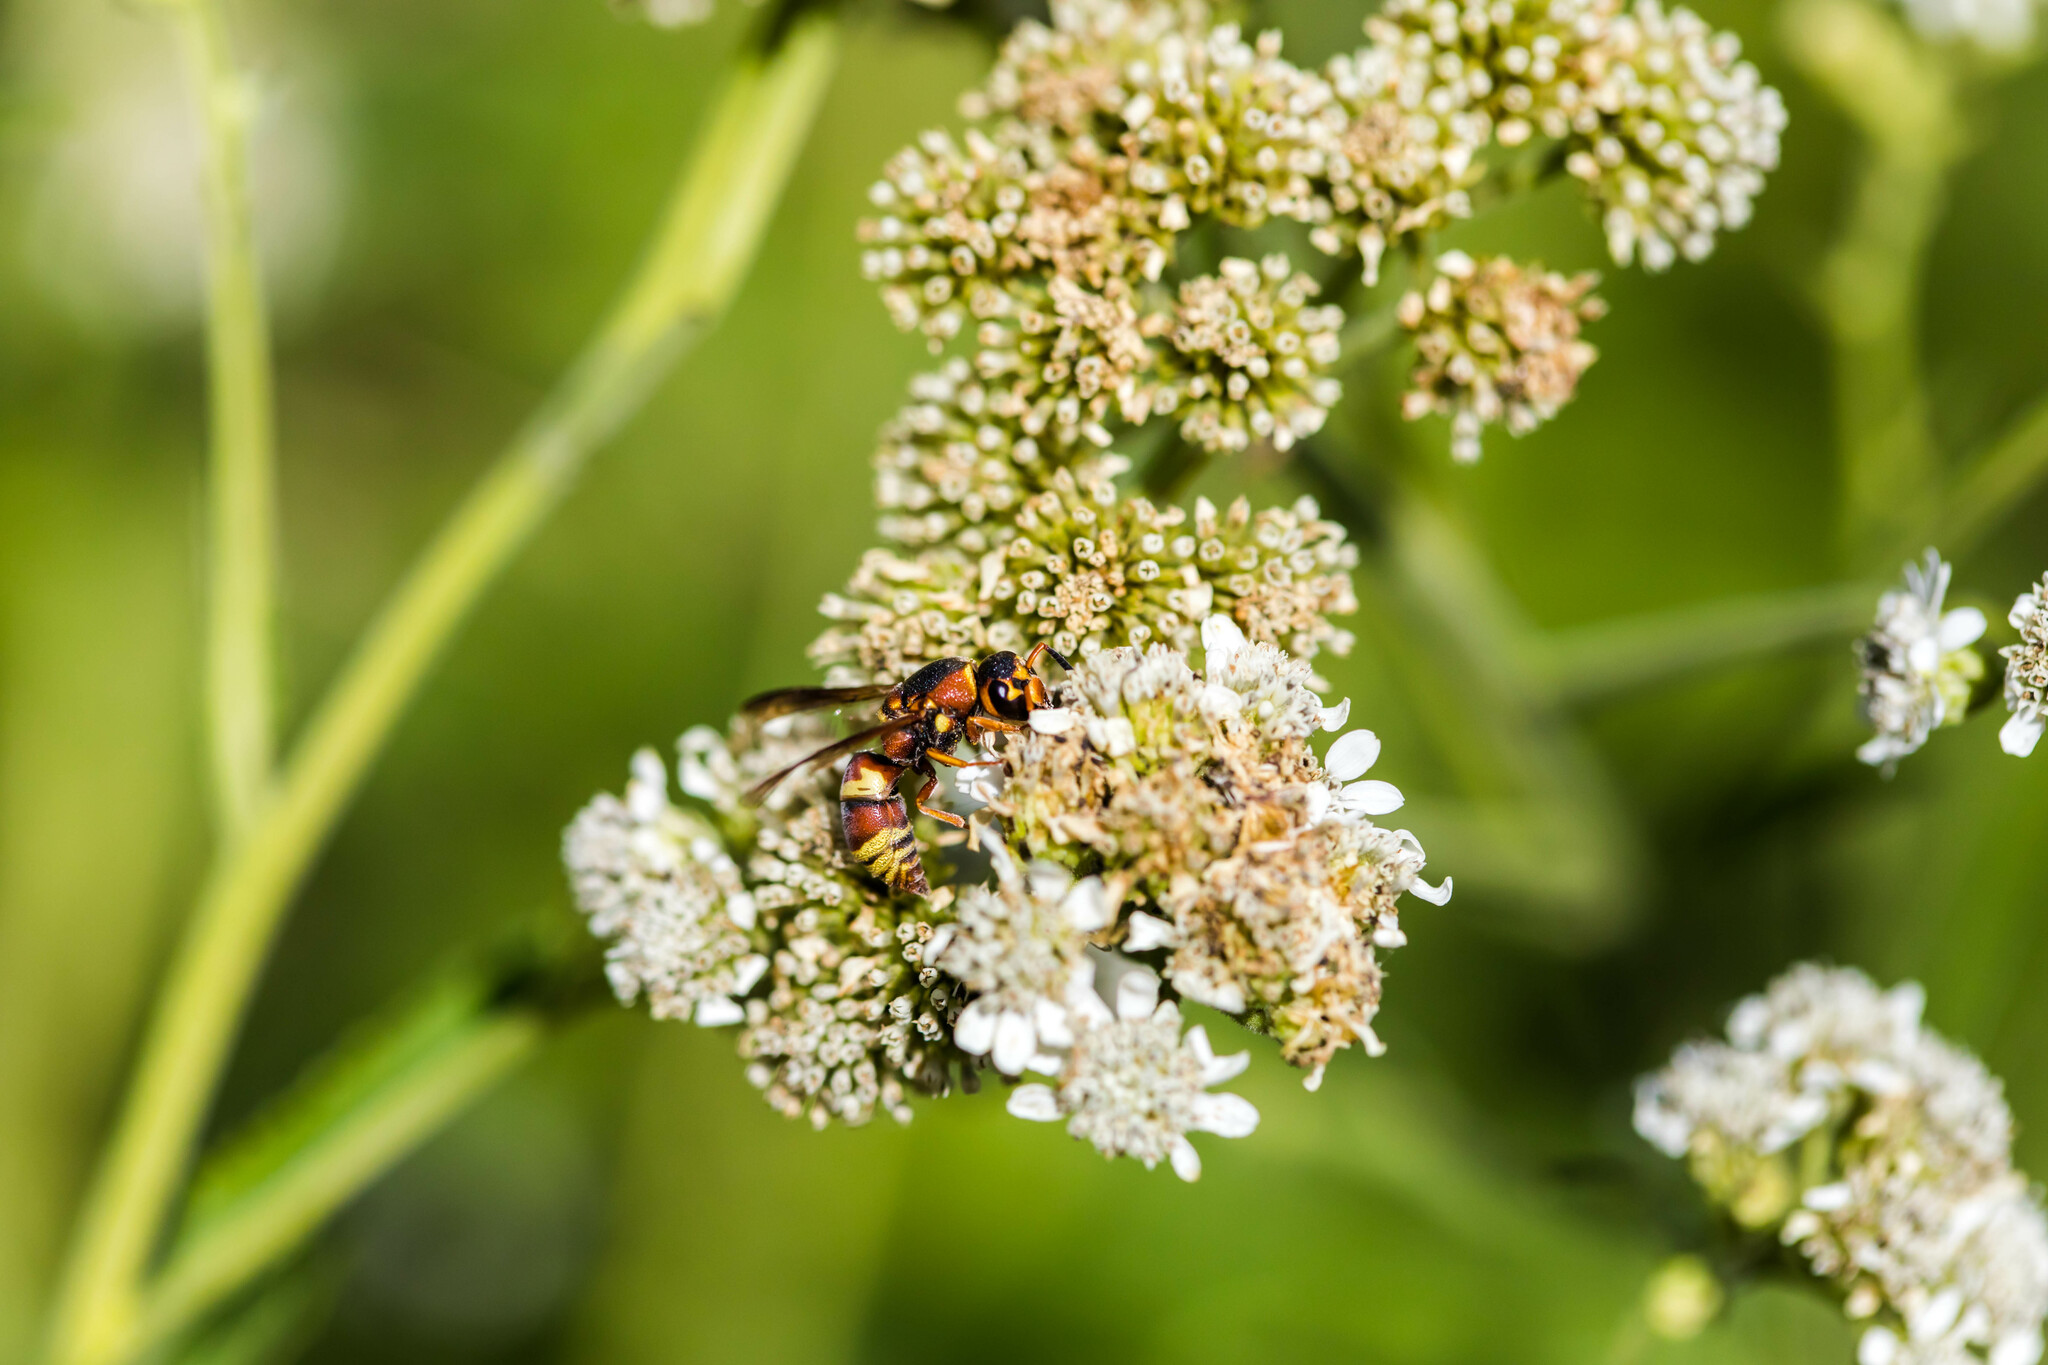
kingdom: Animalia
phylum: Arthropoda
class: Insecta
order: Hymenoptera
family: Eumenidae
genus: Euodynerus
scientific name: Euodynerus hidalgo
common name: Wasp
